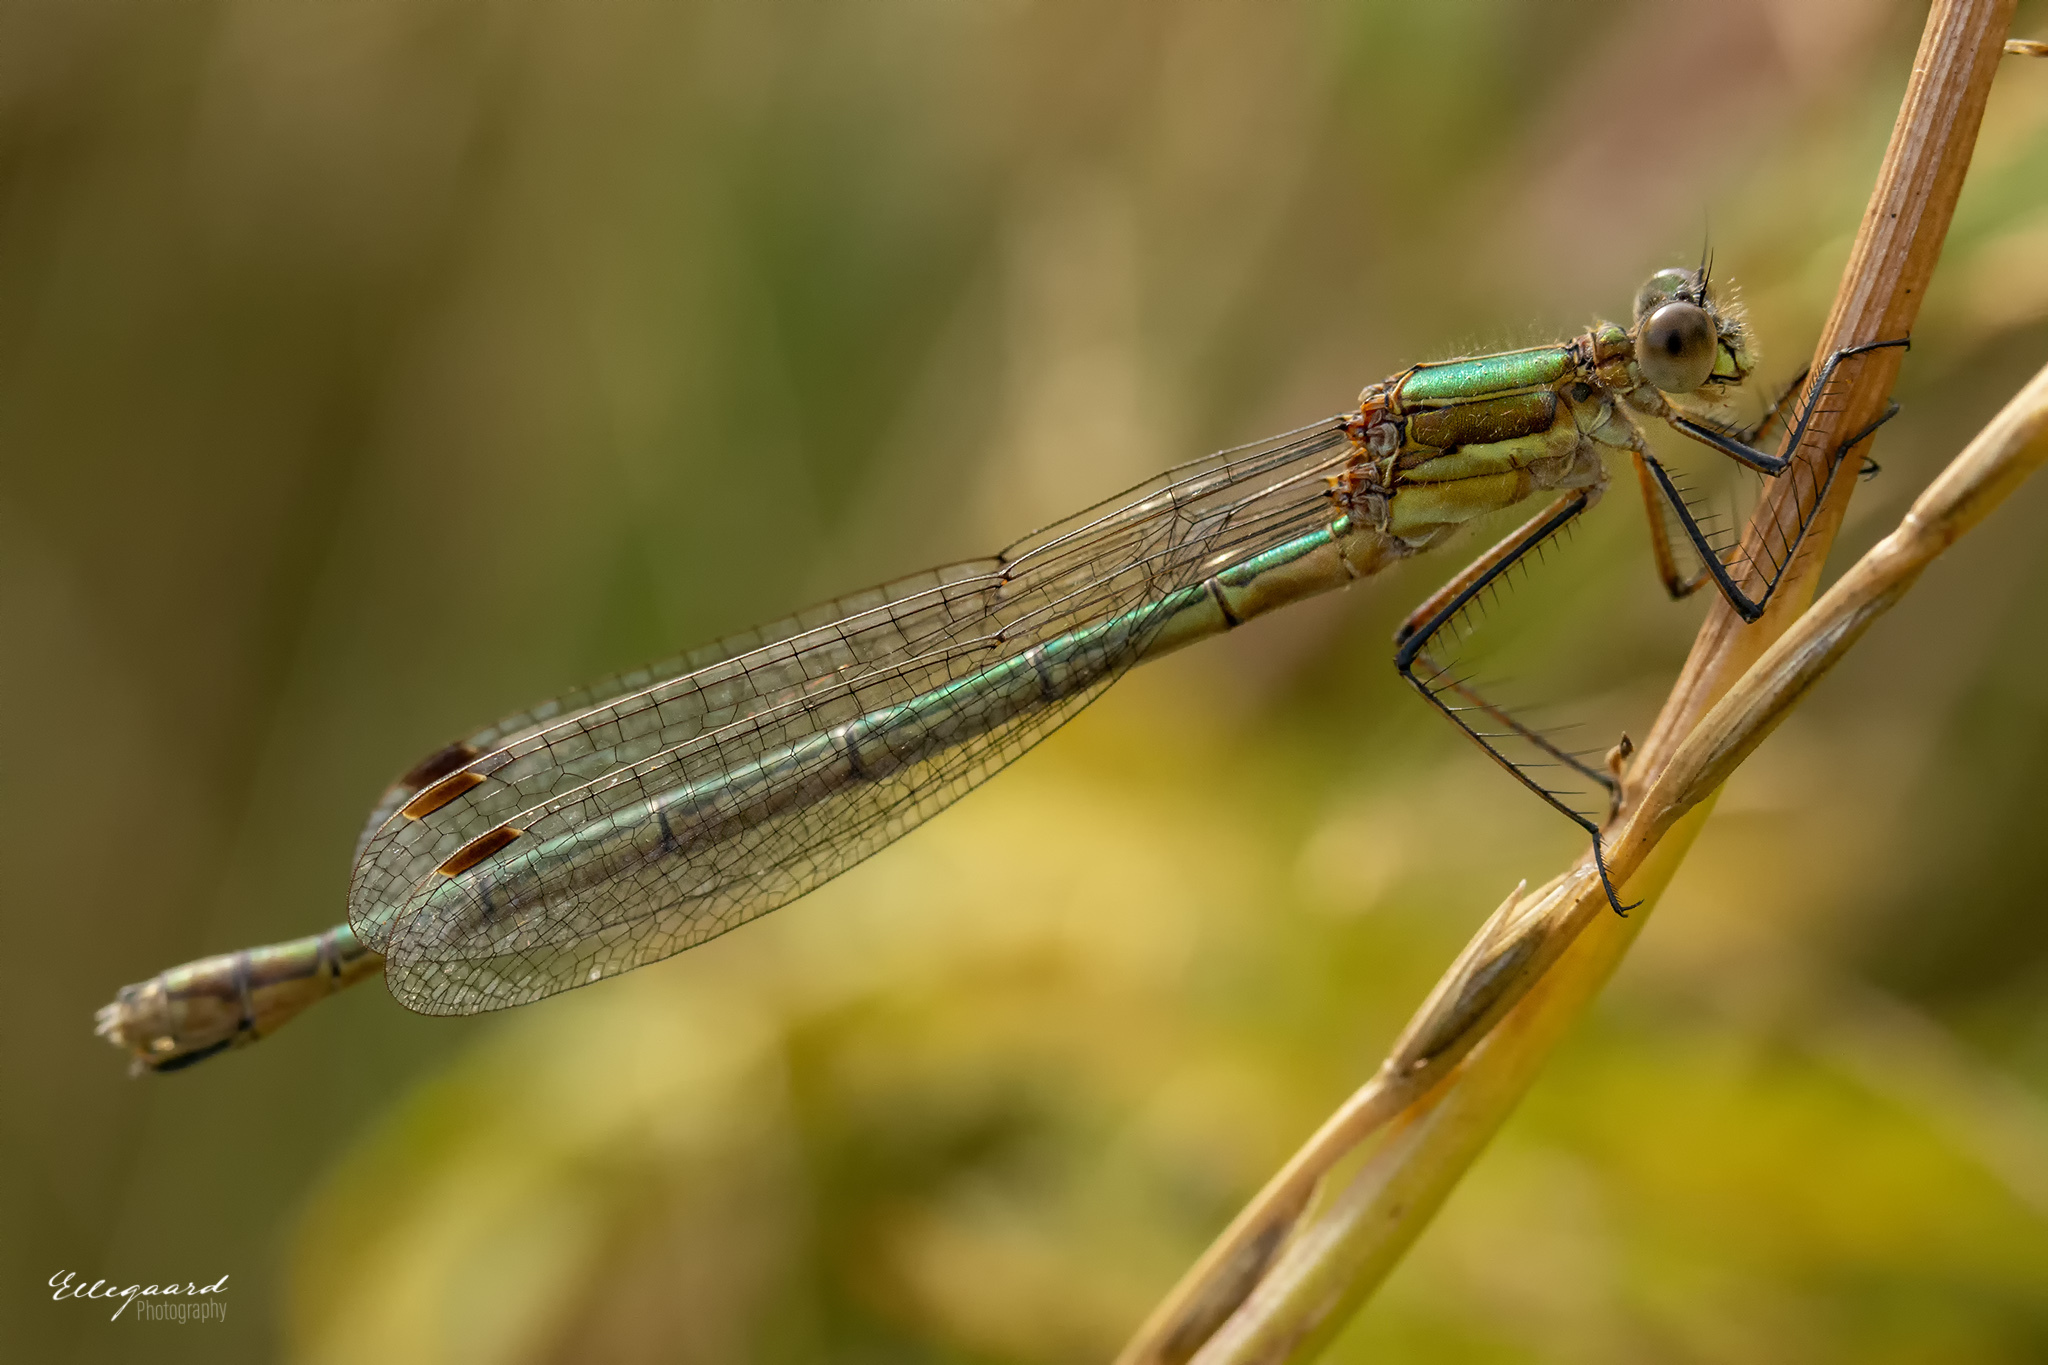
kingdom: Animalia
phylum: Arthropoda
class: Insecta
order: Odonata
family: Lestidae
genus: Lestes
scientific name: Lestes sponsa
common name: Common spreadwing
